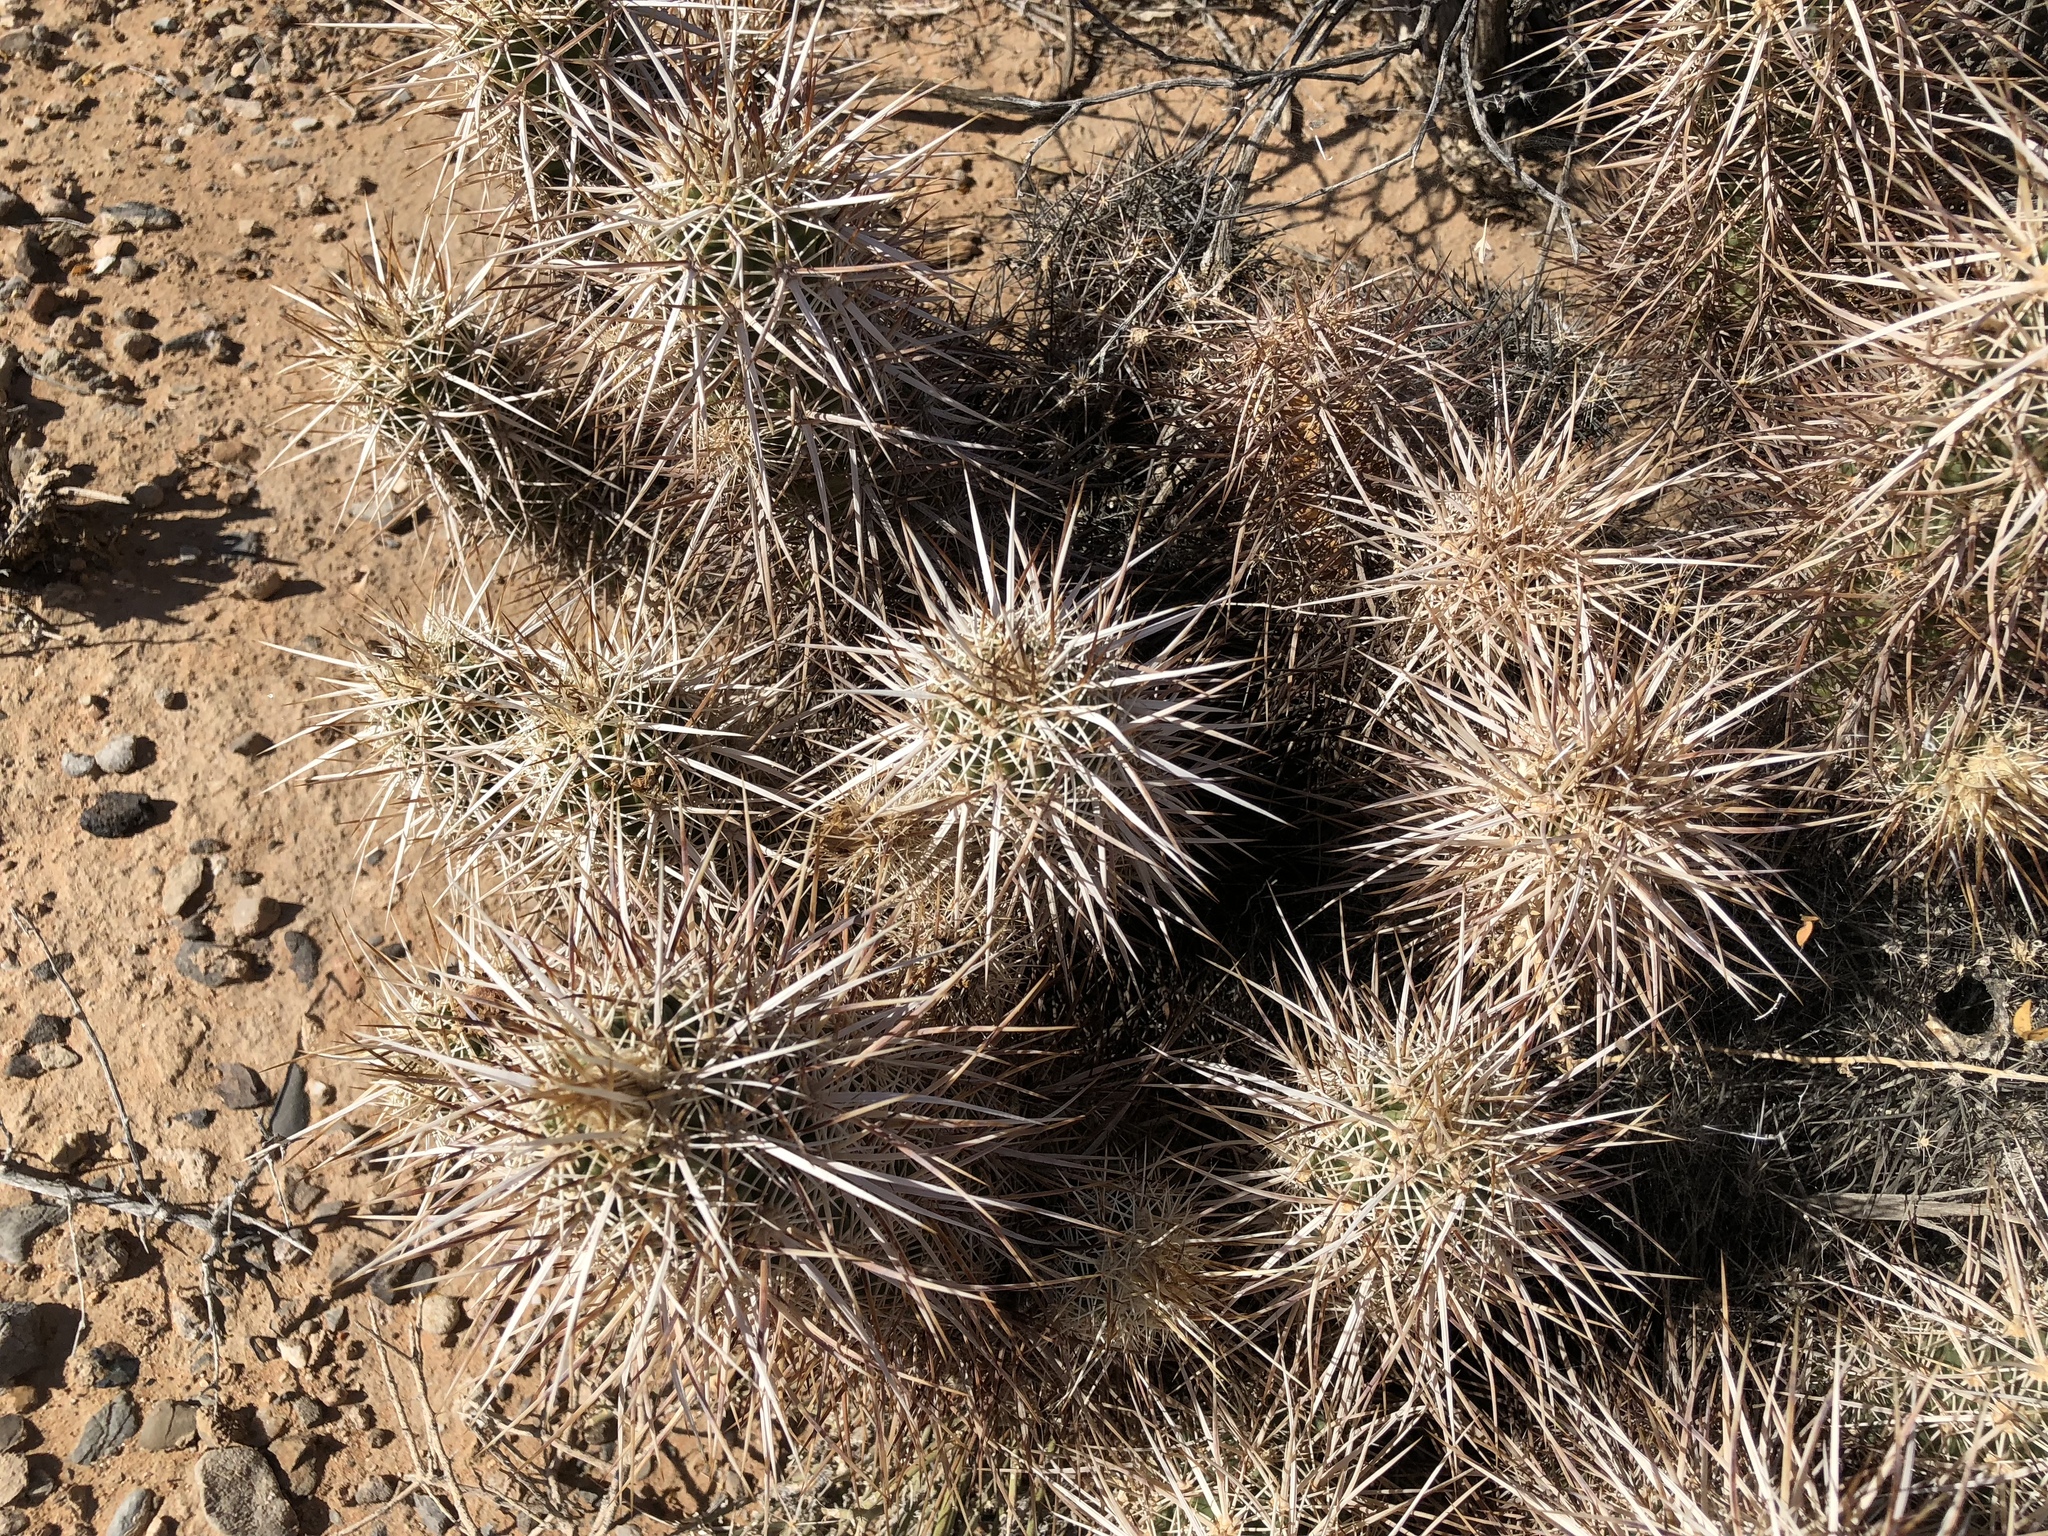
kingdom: Plantae
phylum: Tracheophyta
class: Magnoliopsida
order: Caryophyllales
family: Cactaceae
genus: Echinocereus
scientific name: Echinocereus engelmannii
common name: Engelmann's hedgehog cactus
